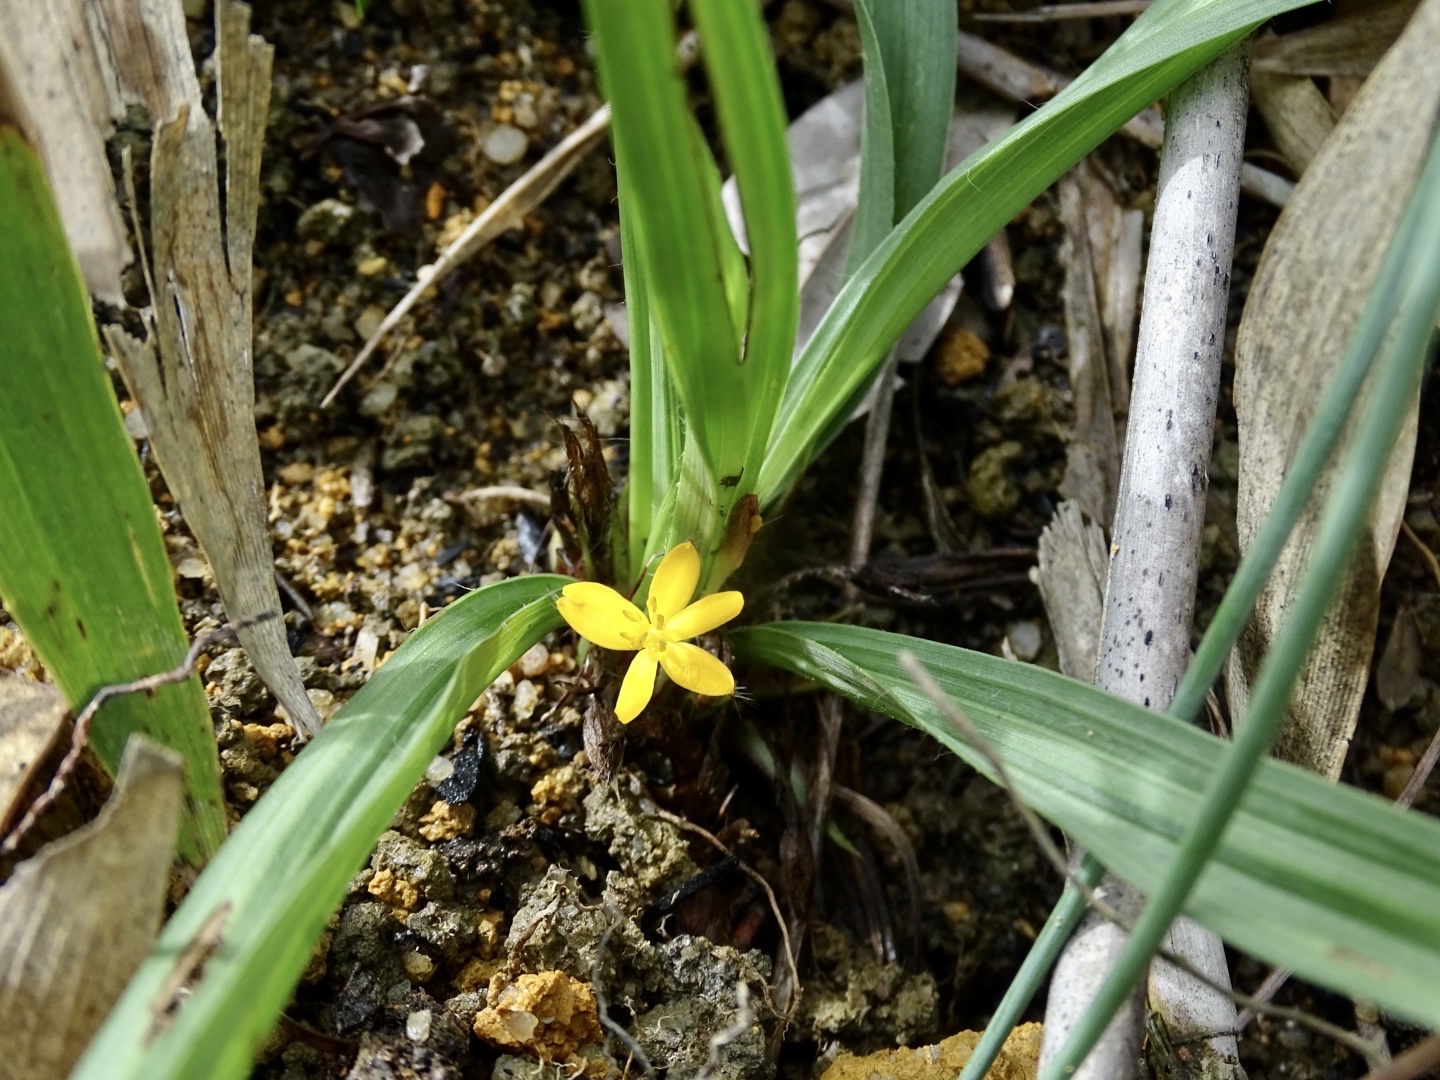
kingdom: Plantae
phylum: Tracheophyta
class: Liliopsida
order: Asparagales
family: Hypoxidaceae
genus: Curculigo
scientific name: Curculigo orchioides
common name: Golden eye-grass
